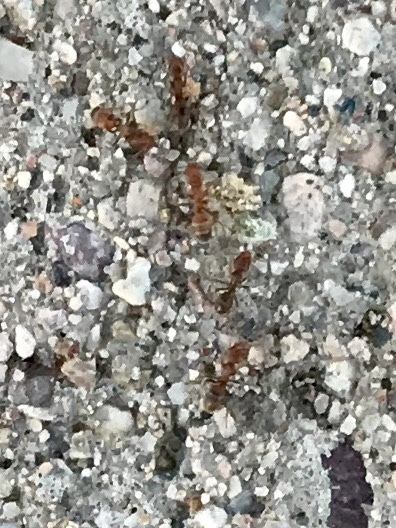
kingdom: Animalia
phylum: Arthropoda
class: Insecta
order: Hymenoptera
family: Formicidae
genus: Forelius
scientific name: Forelius
